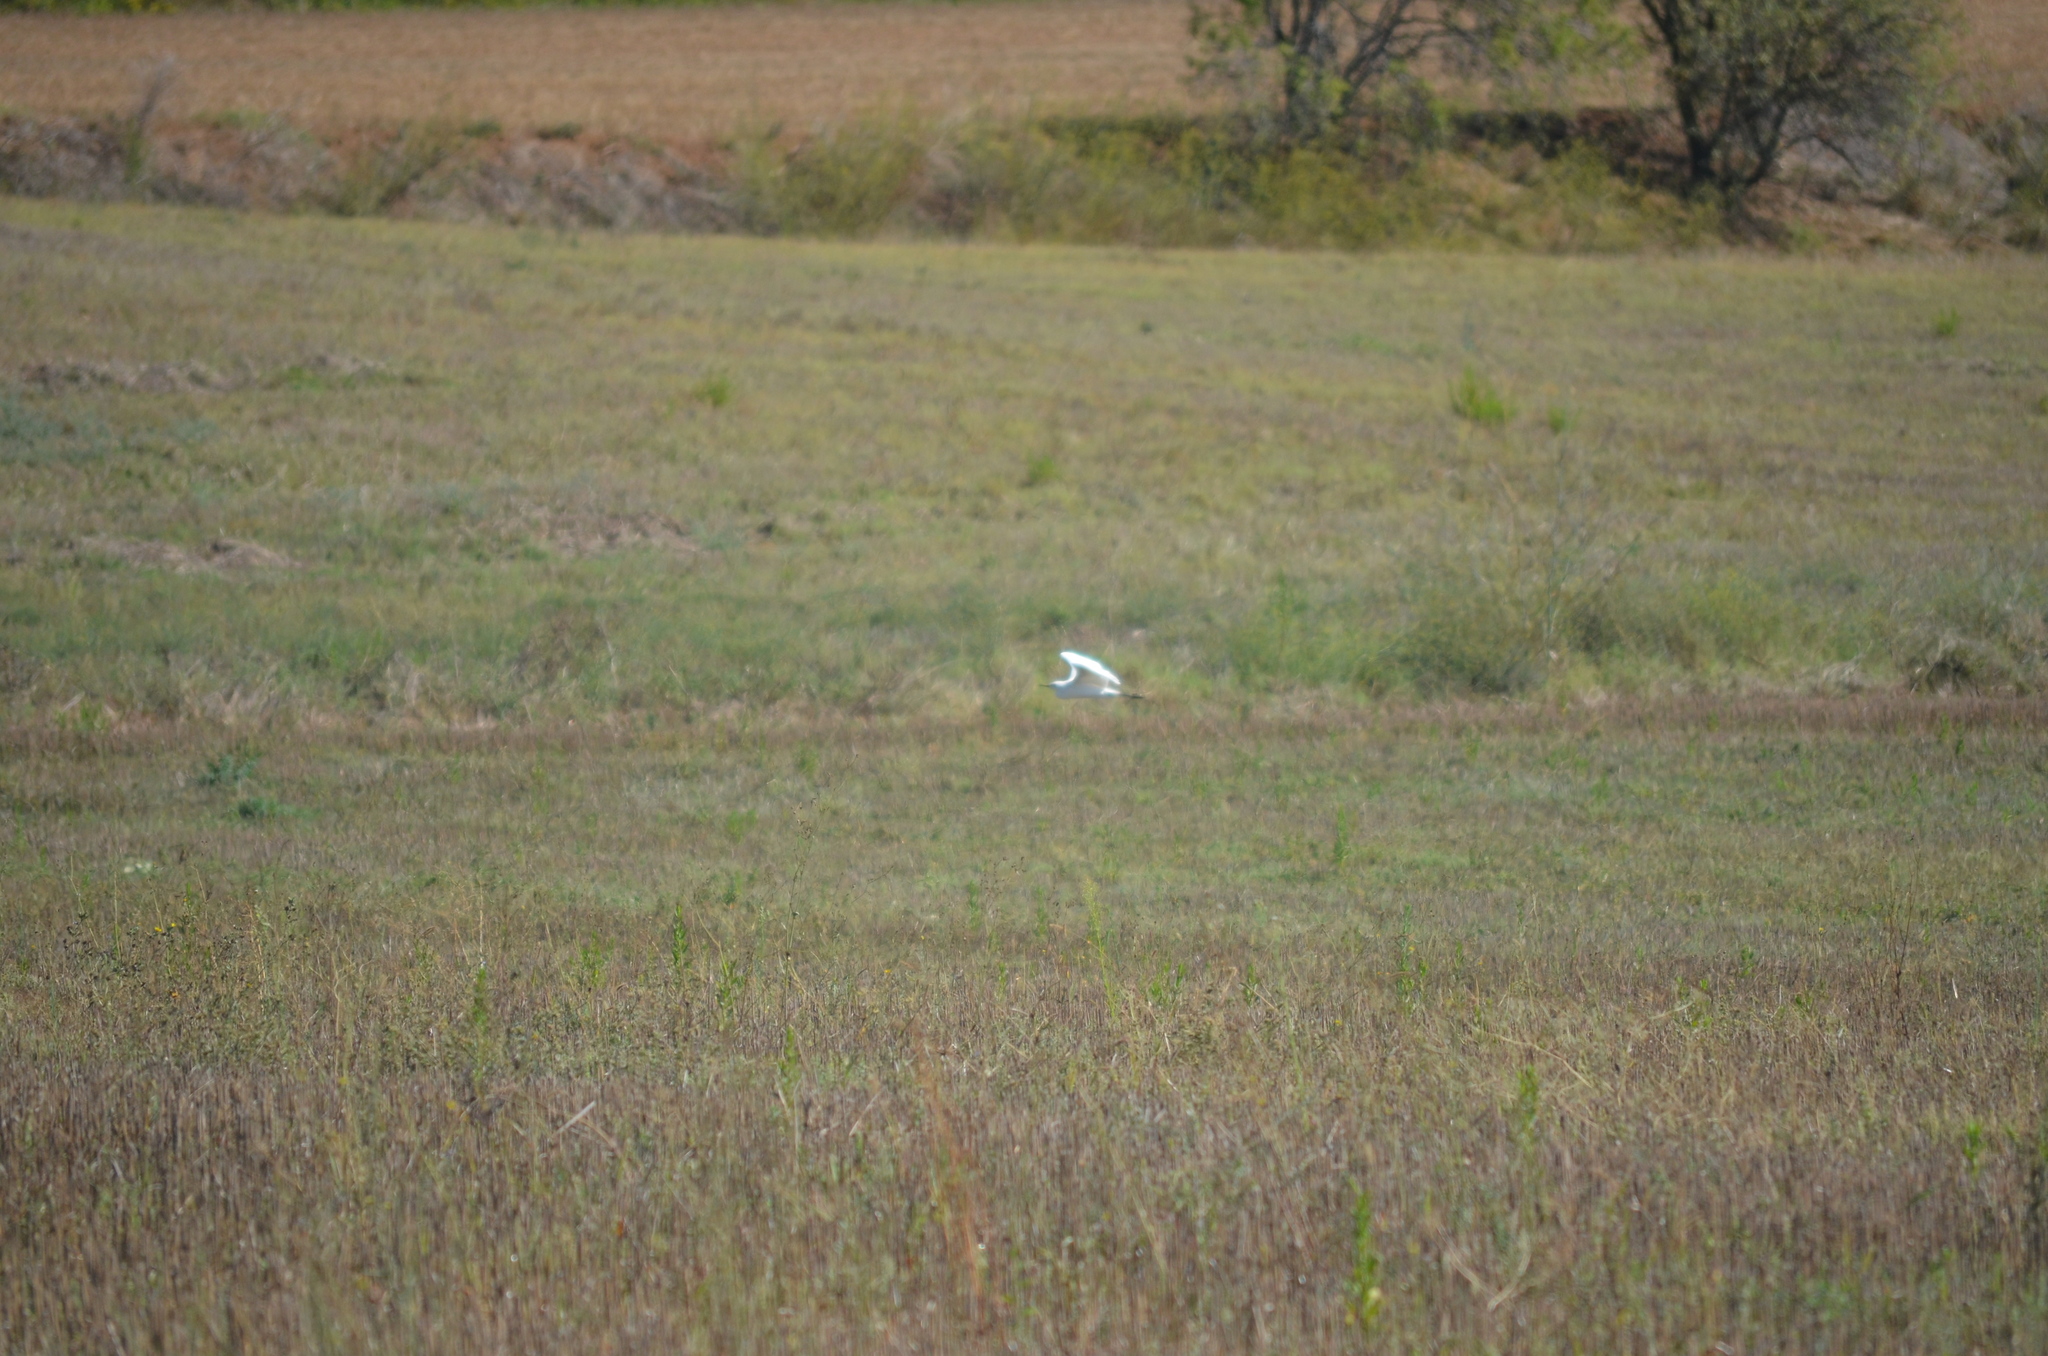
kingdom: Animalia
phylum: Chordata
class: Aves
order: Pelecaniformes
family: Ardeidae
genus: Bubulcus
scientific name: Bubulcus ibis
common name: Cattle egret
